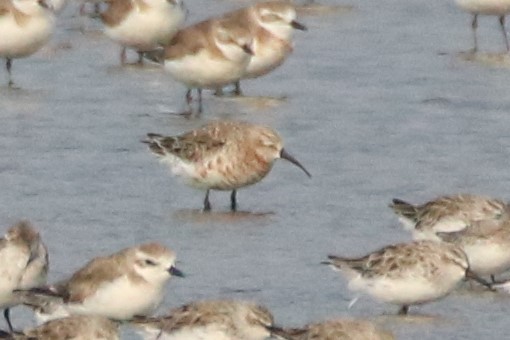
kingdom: Animalia
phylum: Chordata
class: Aves
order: Charadriiformes
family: Scolopacidae
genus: Calidris
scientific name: Calidris ferruginea
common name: Curlew sandpiper
